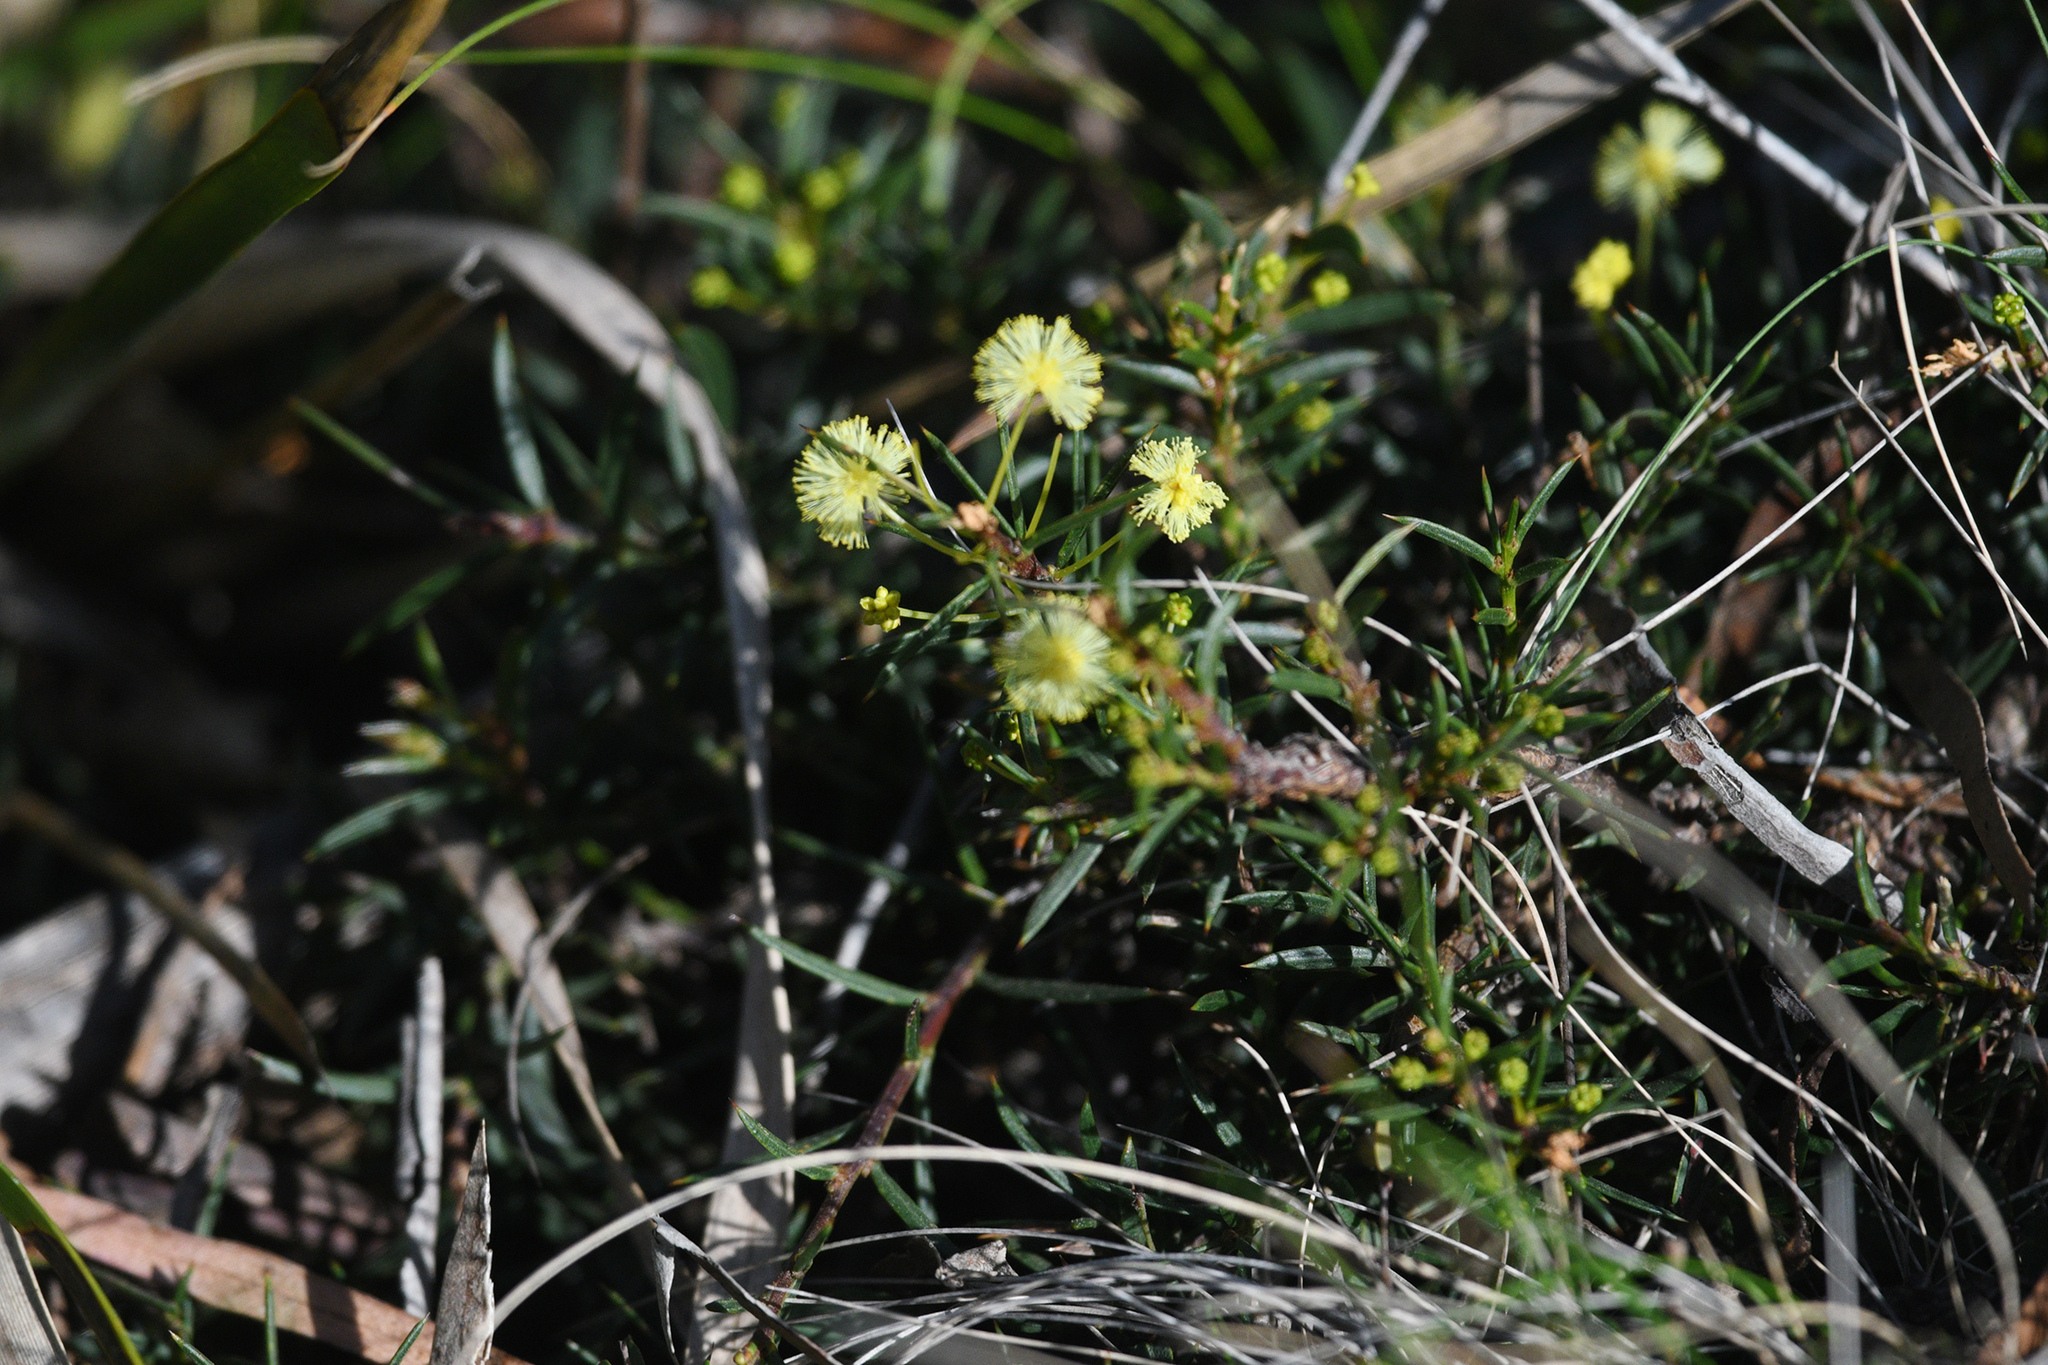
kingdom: Plantae
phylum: Tracheophyta
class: Magnoliopsida
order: Fabales
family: Fabaceae
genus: Acacia
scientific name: Acacia genistifolia
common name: Early wattle
